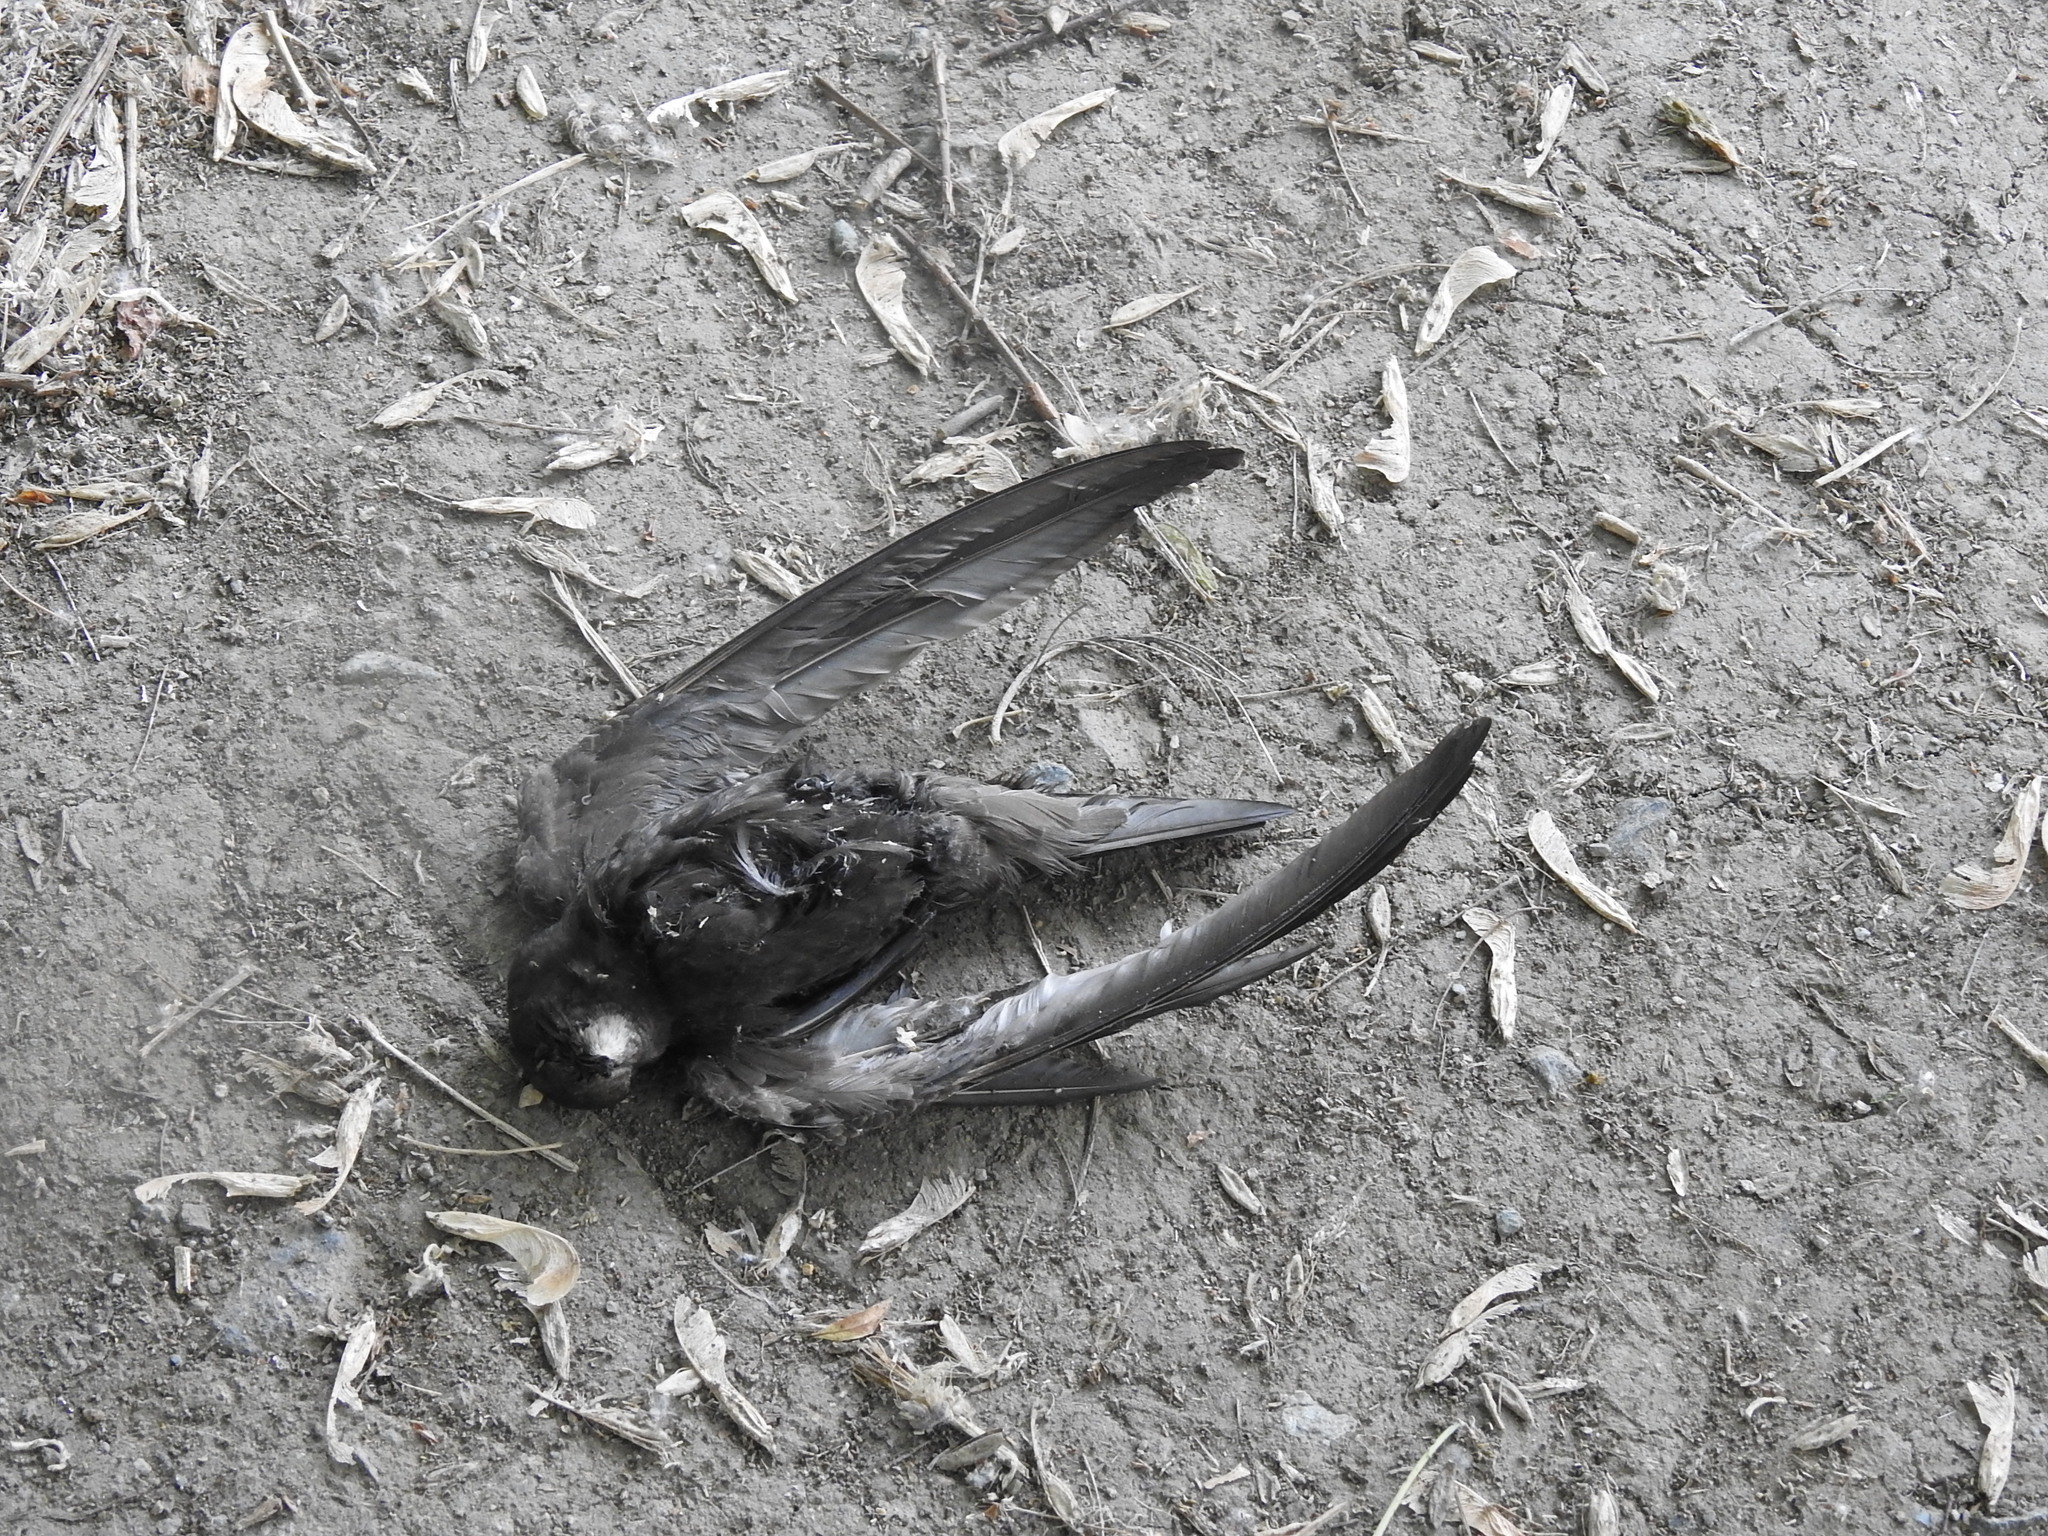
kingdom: Animalia
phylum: Chordata
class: Aves
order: Apodiformes
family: Apodidae
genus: Apus
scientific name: Apus apus
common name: Common swift
